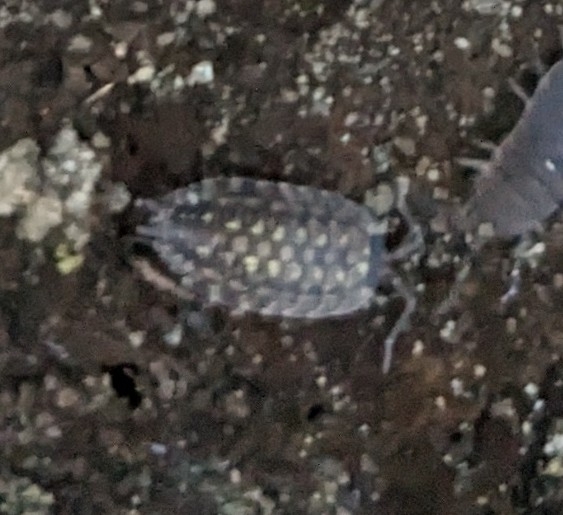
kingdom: Animalia
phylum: Arthropoda
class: Malacostraca
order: Isopoda
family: Porcellionidae
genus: Porcellio
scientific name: Porcellio spinicornis
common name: Painted woodlouse
